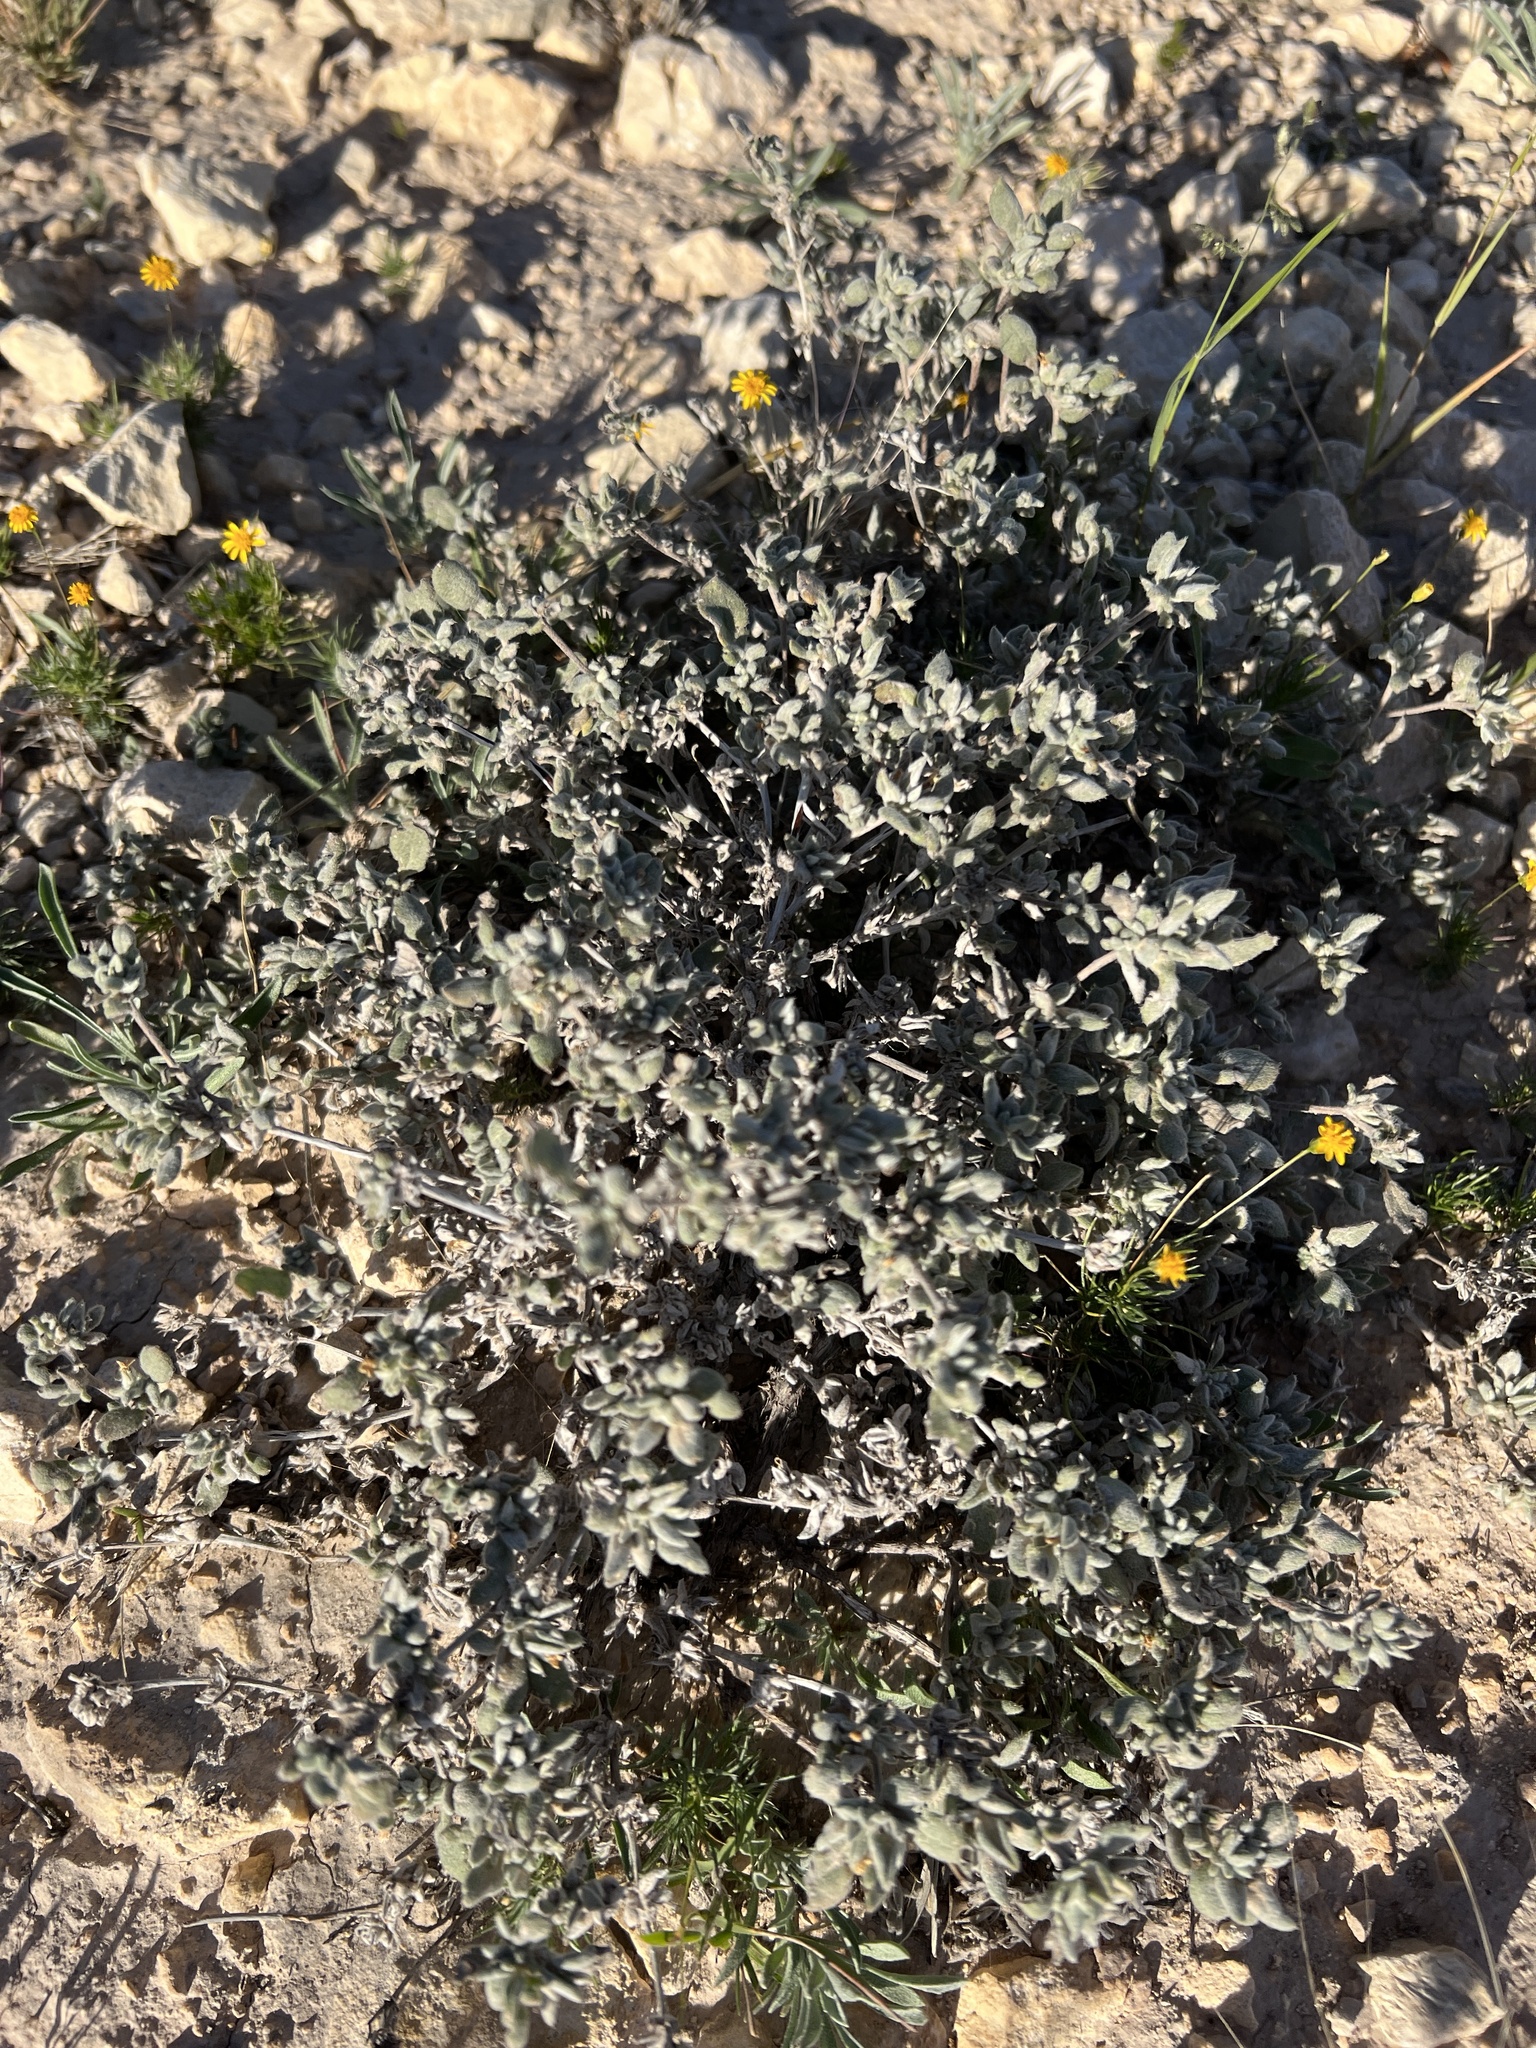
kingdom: Plantae
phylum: Tracheophyta
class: Magnoliopsida
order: Boraginales
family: Ehretiaceae
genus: Tiquilia
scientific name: Tiquilia canescens
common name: Hairy tiquilia
